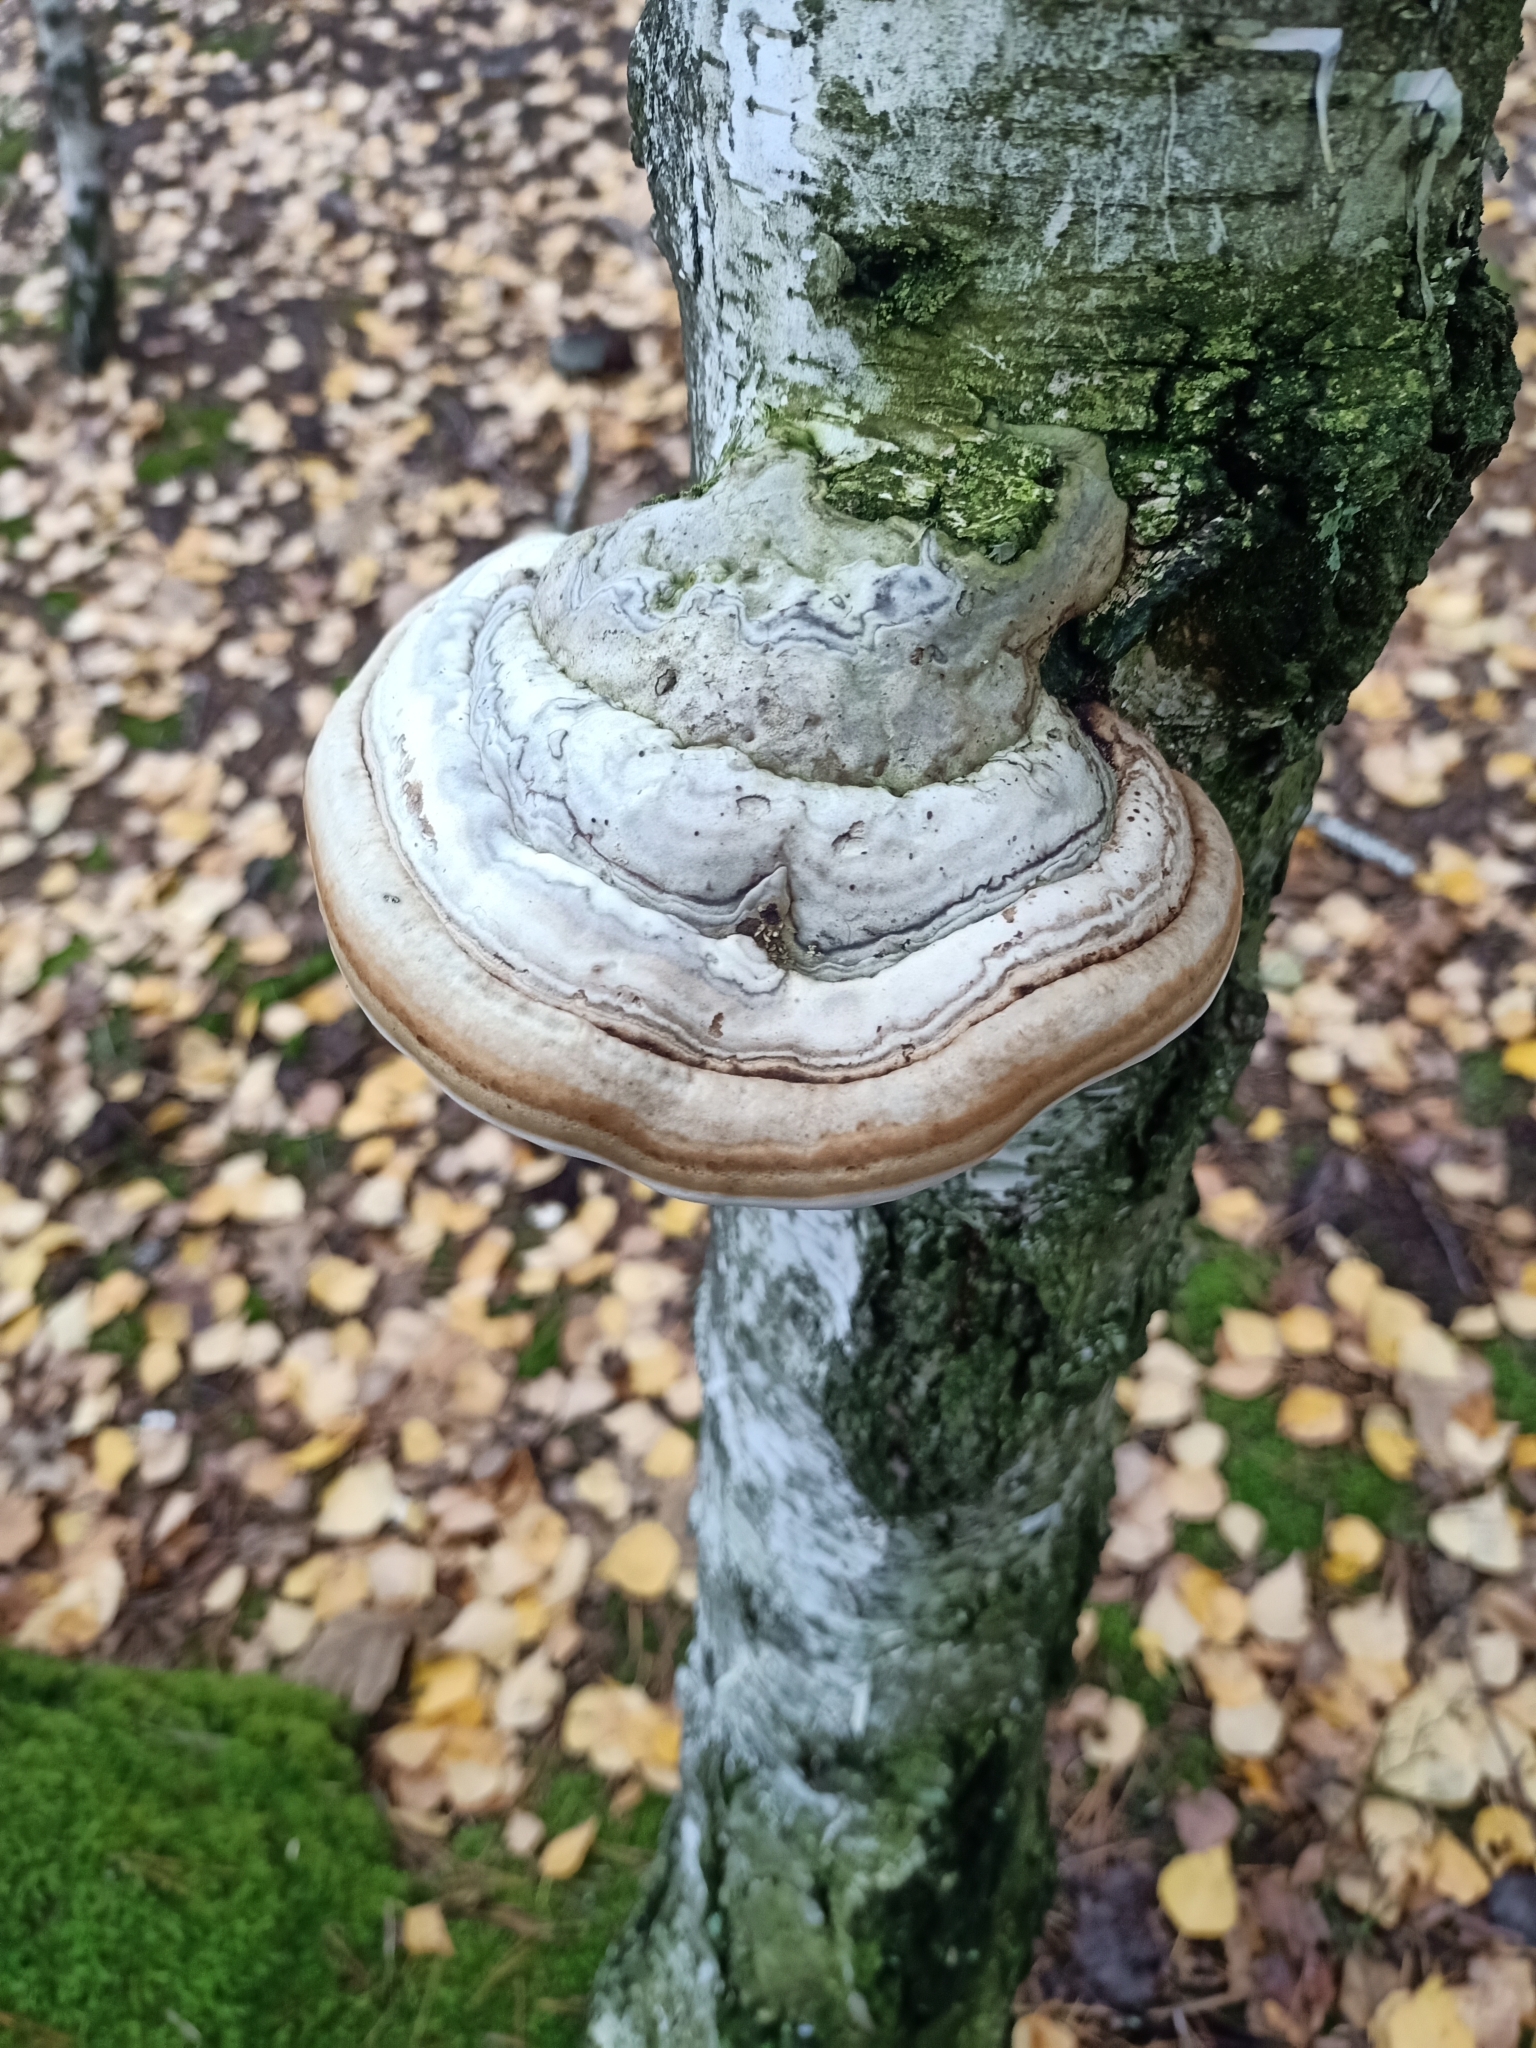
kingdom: Fungi
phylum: Basidiomycota
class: Agaricomycetes
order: Polyporales
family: Polyporaceae
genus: Fomes
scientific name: Fomes fomentarius
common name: Hoof fungus
